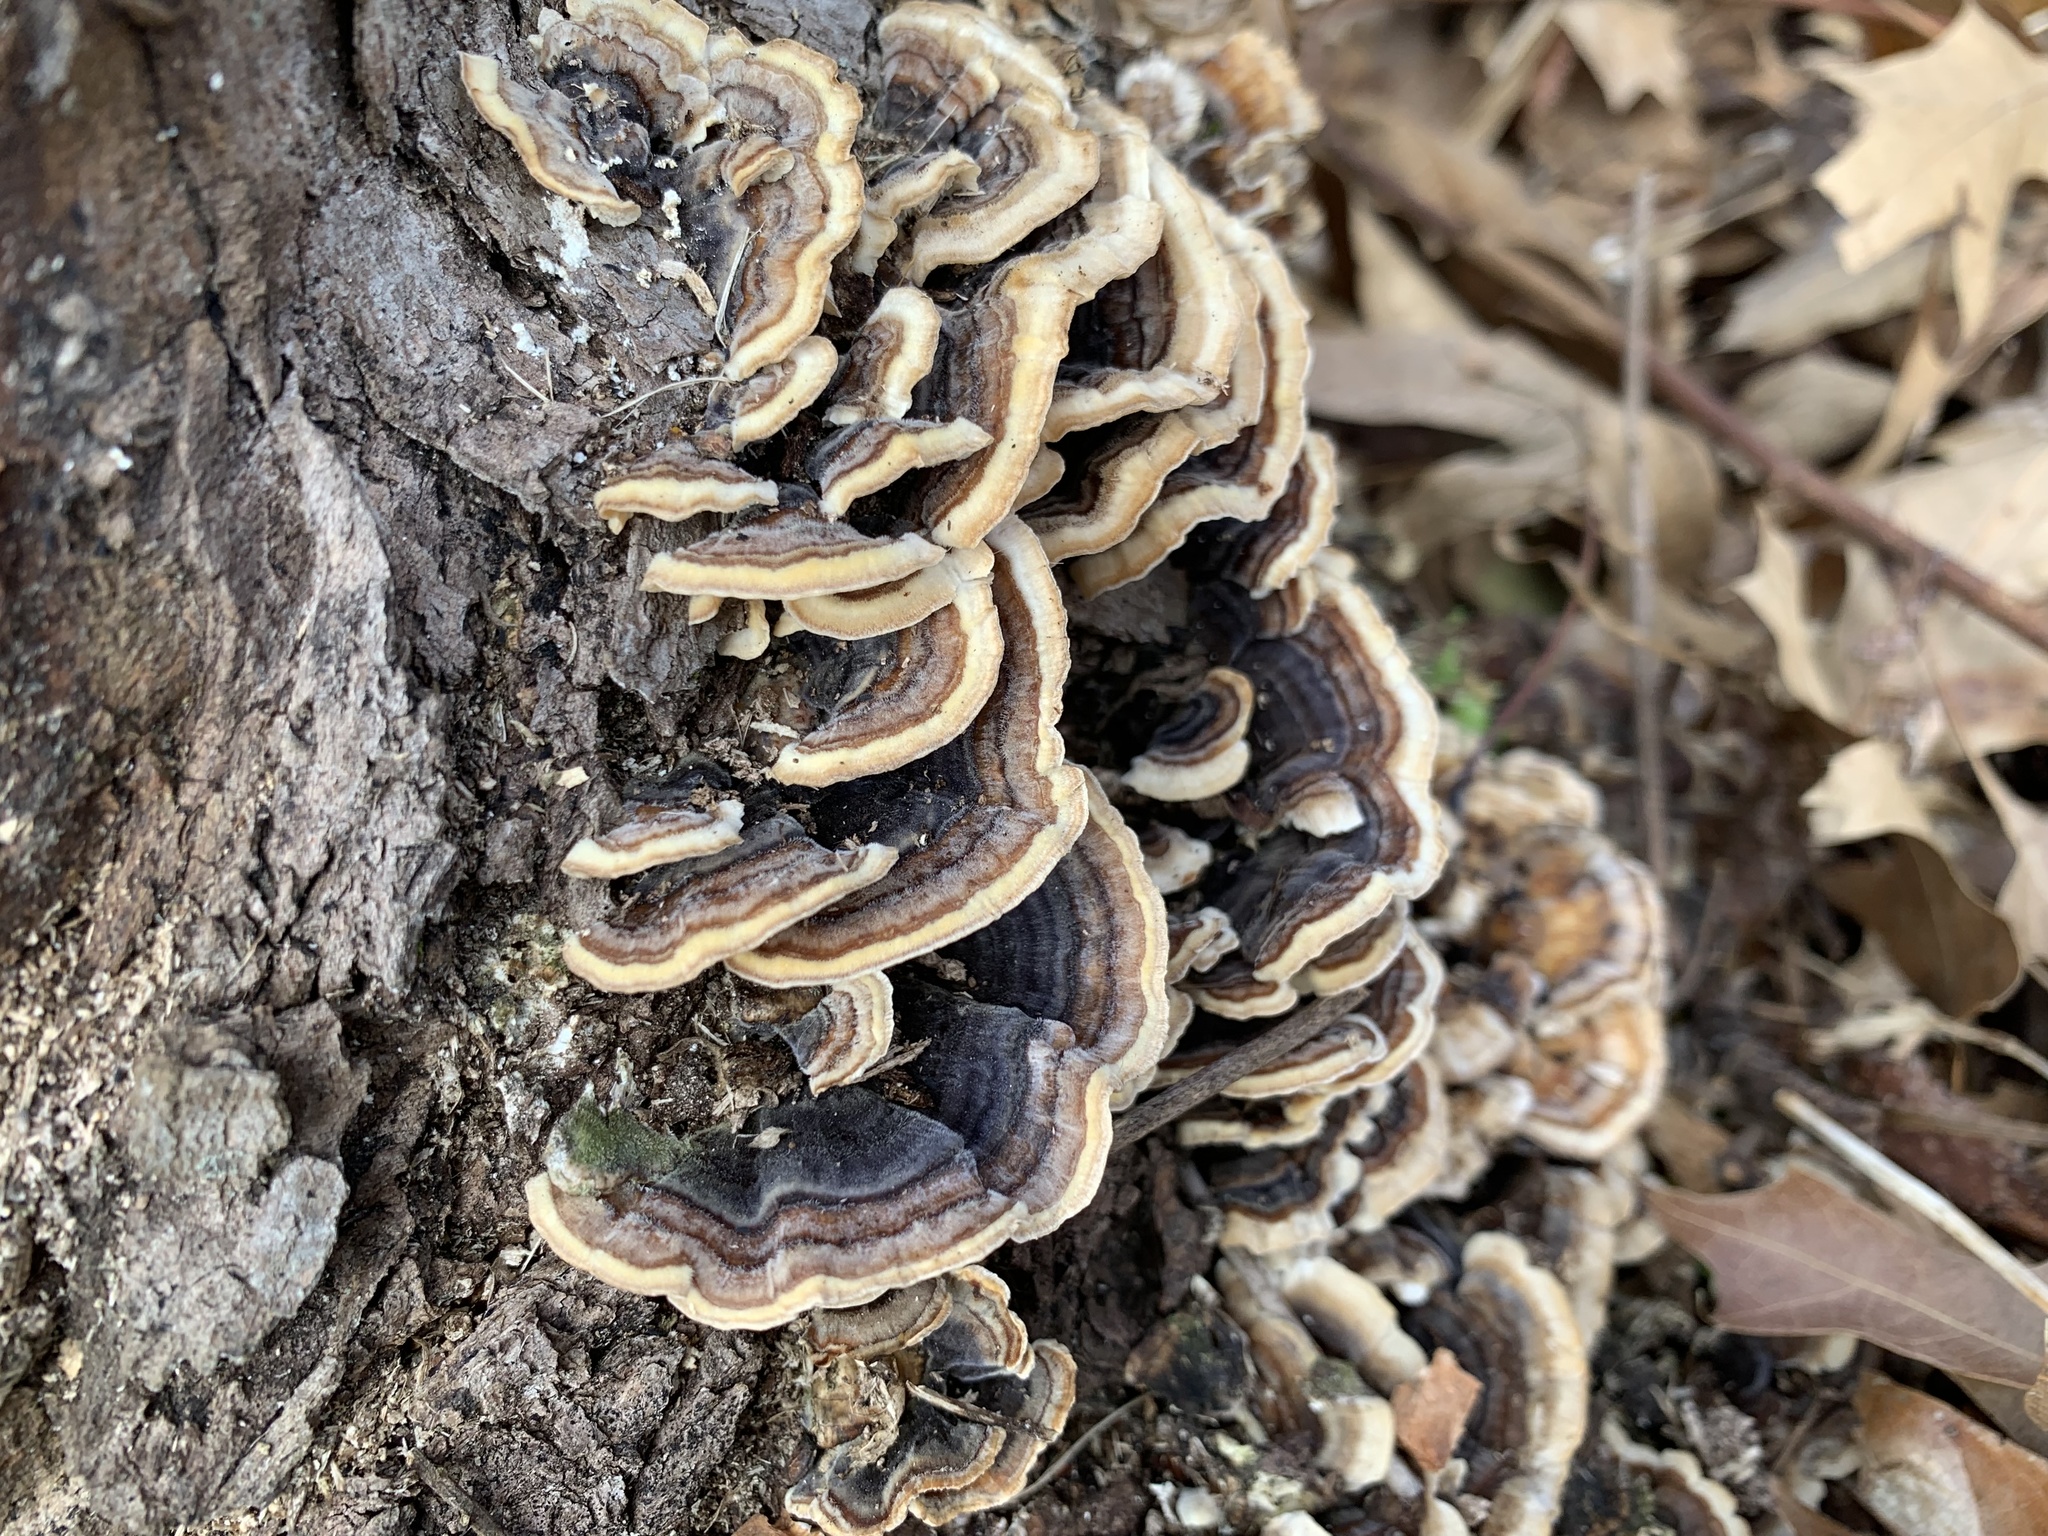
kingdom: Fungi
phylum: Basidiomycota
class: Agaricomycetes
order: Polyporales
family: Polyporaceae
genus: Trametes
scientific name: Trametes versicolor
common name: Turkeytail
